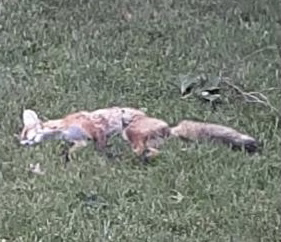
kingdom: Animalia
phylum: Chordata
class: Mammalia
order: Carnivora
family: Canidae
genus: Vulpes
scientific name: Vulpes vulpes
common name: Red fox
